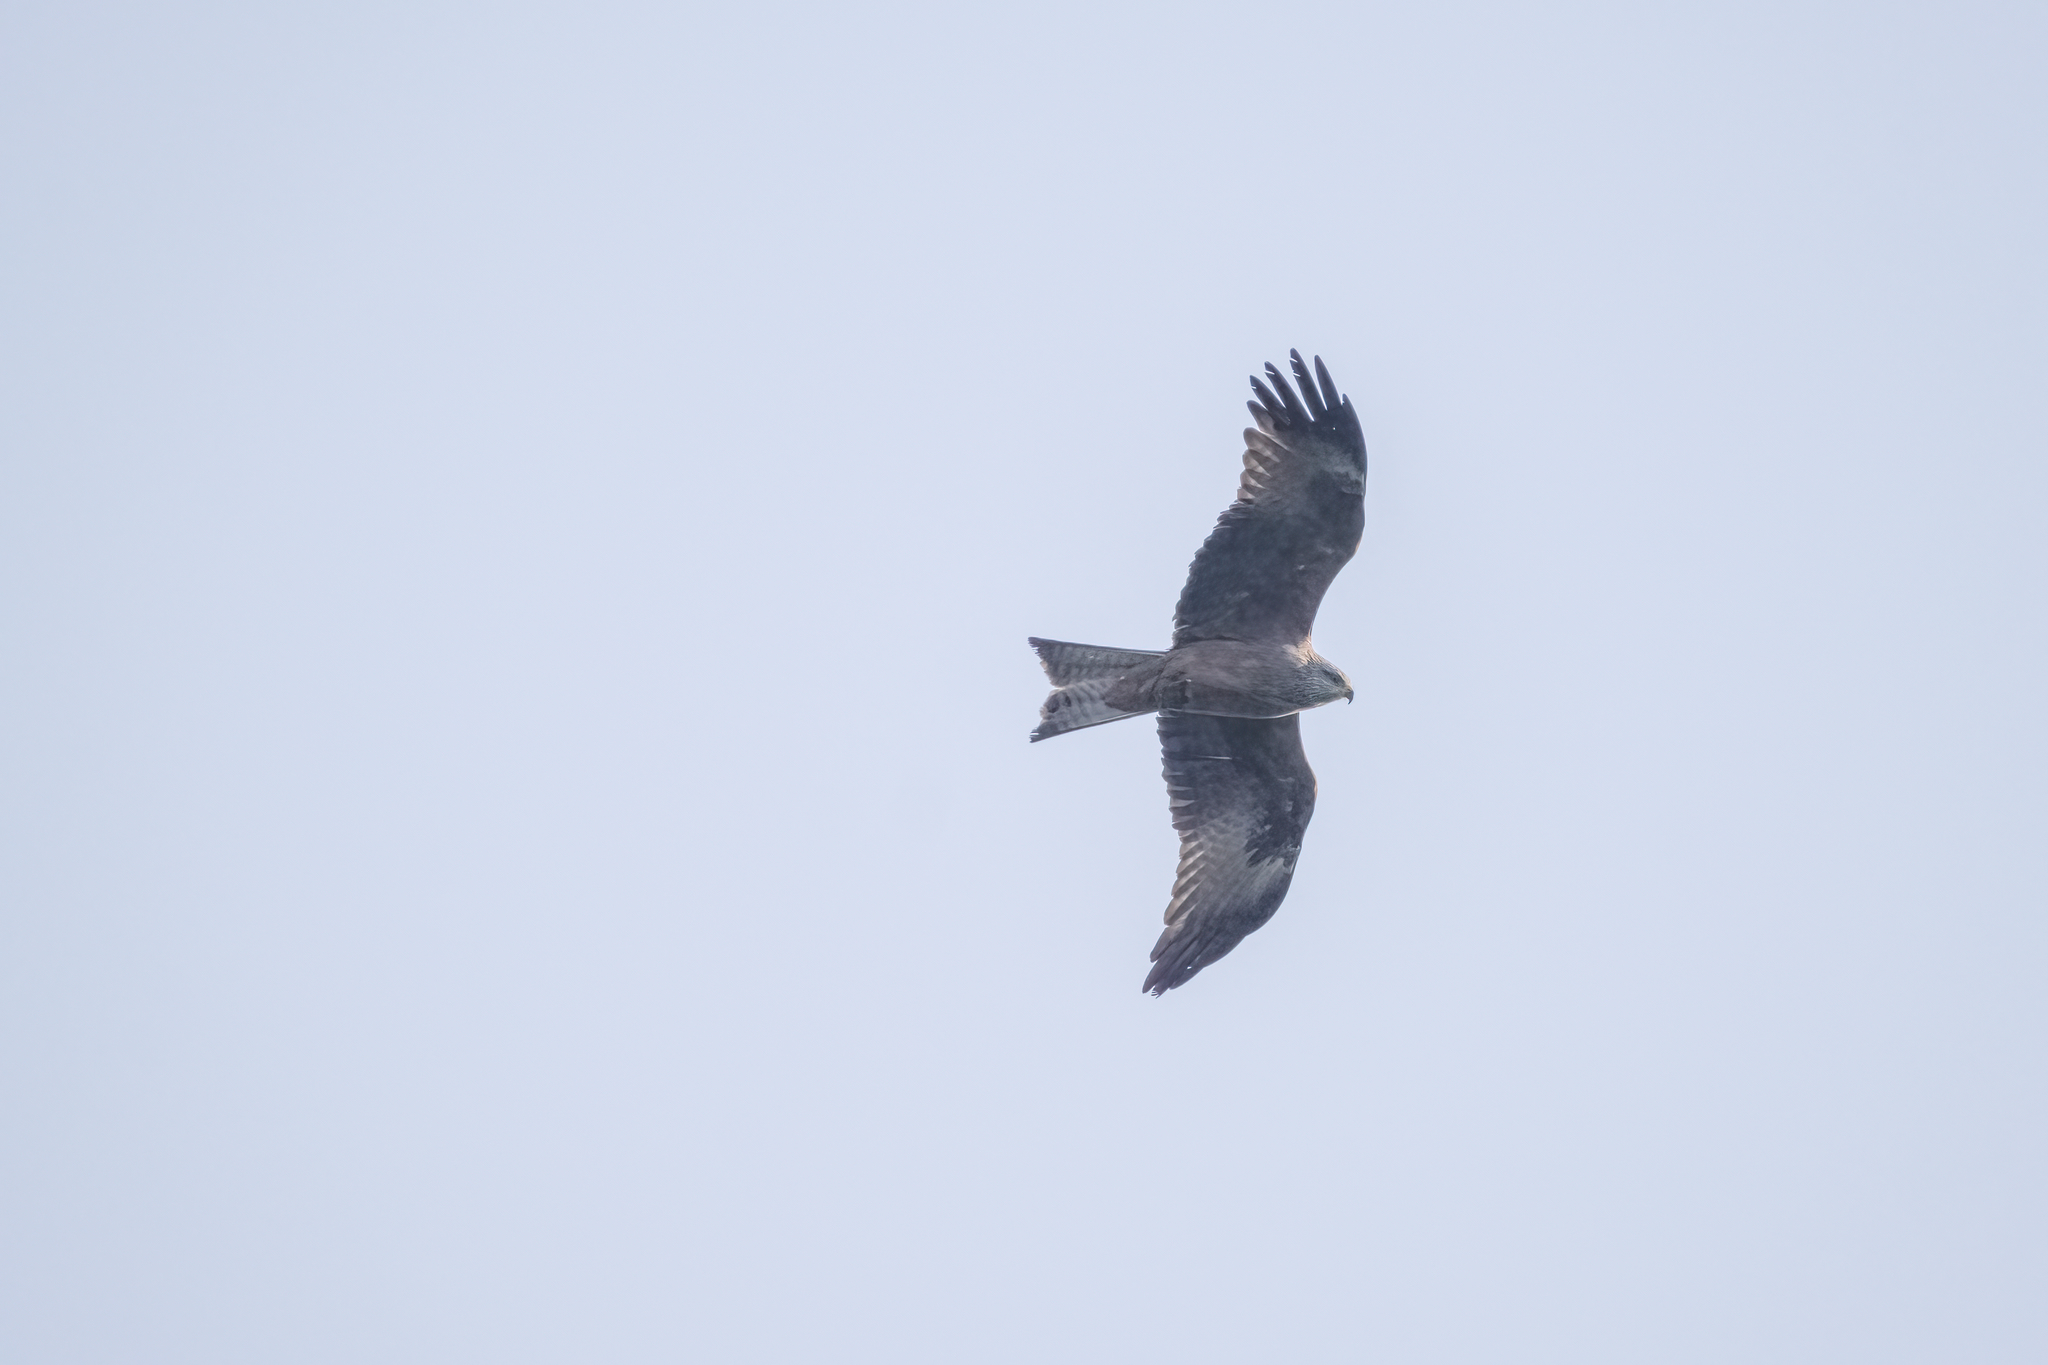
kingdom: Animalia
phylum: Chordata
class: Aves
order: Accipitriformes
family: Accipitridae
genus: Milvus
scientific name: Milvus migrans
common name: Black kite
